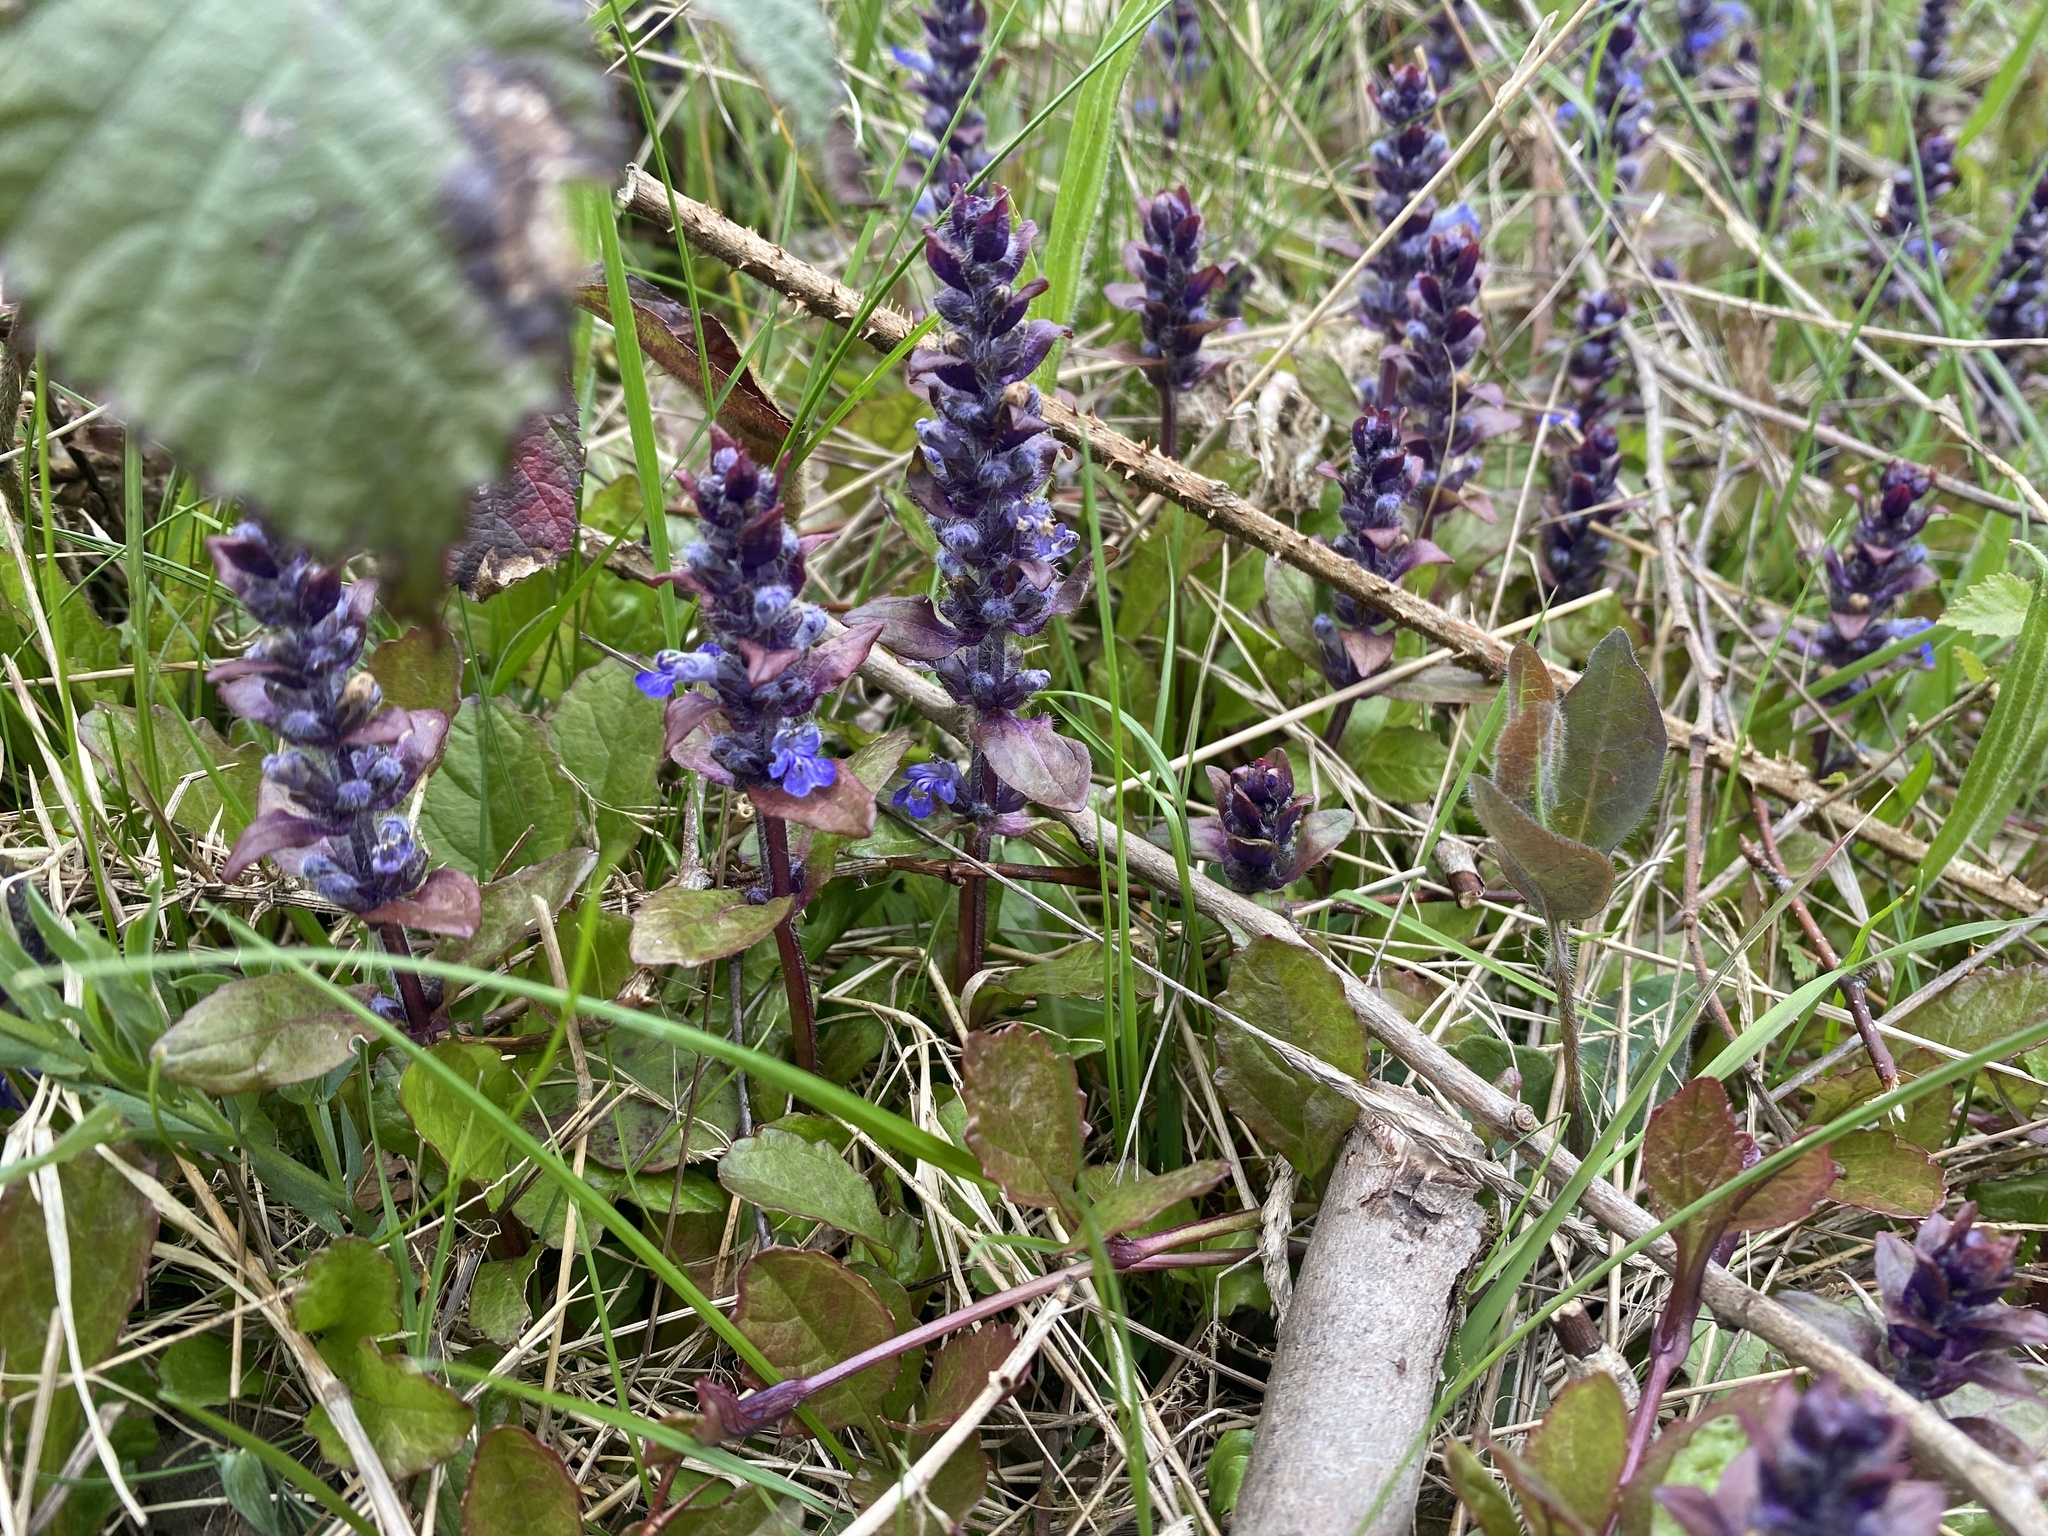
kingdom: Plantae
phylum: Tracheophyta
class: Magnoliopsida
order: Lamiales
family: Lamiaceae
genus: Ajuga
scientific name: Ajuga reptans
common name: Bugle
